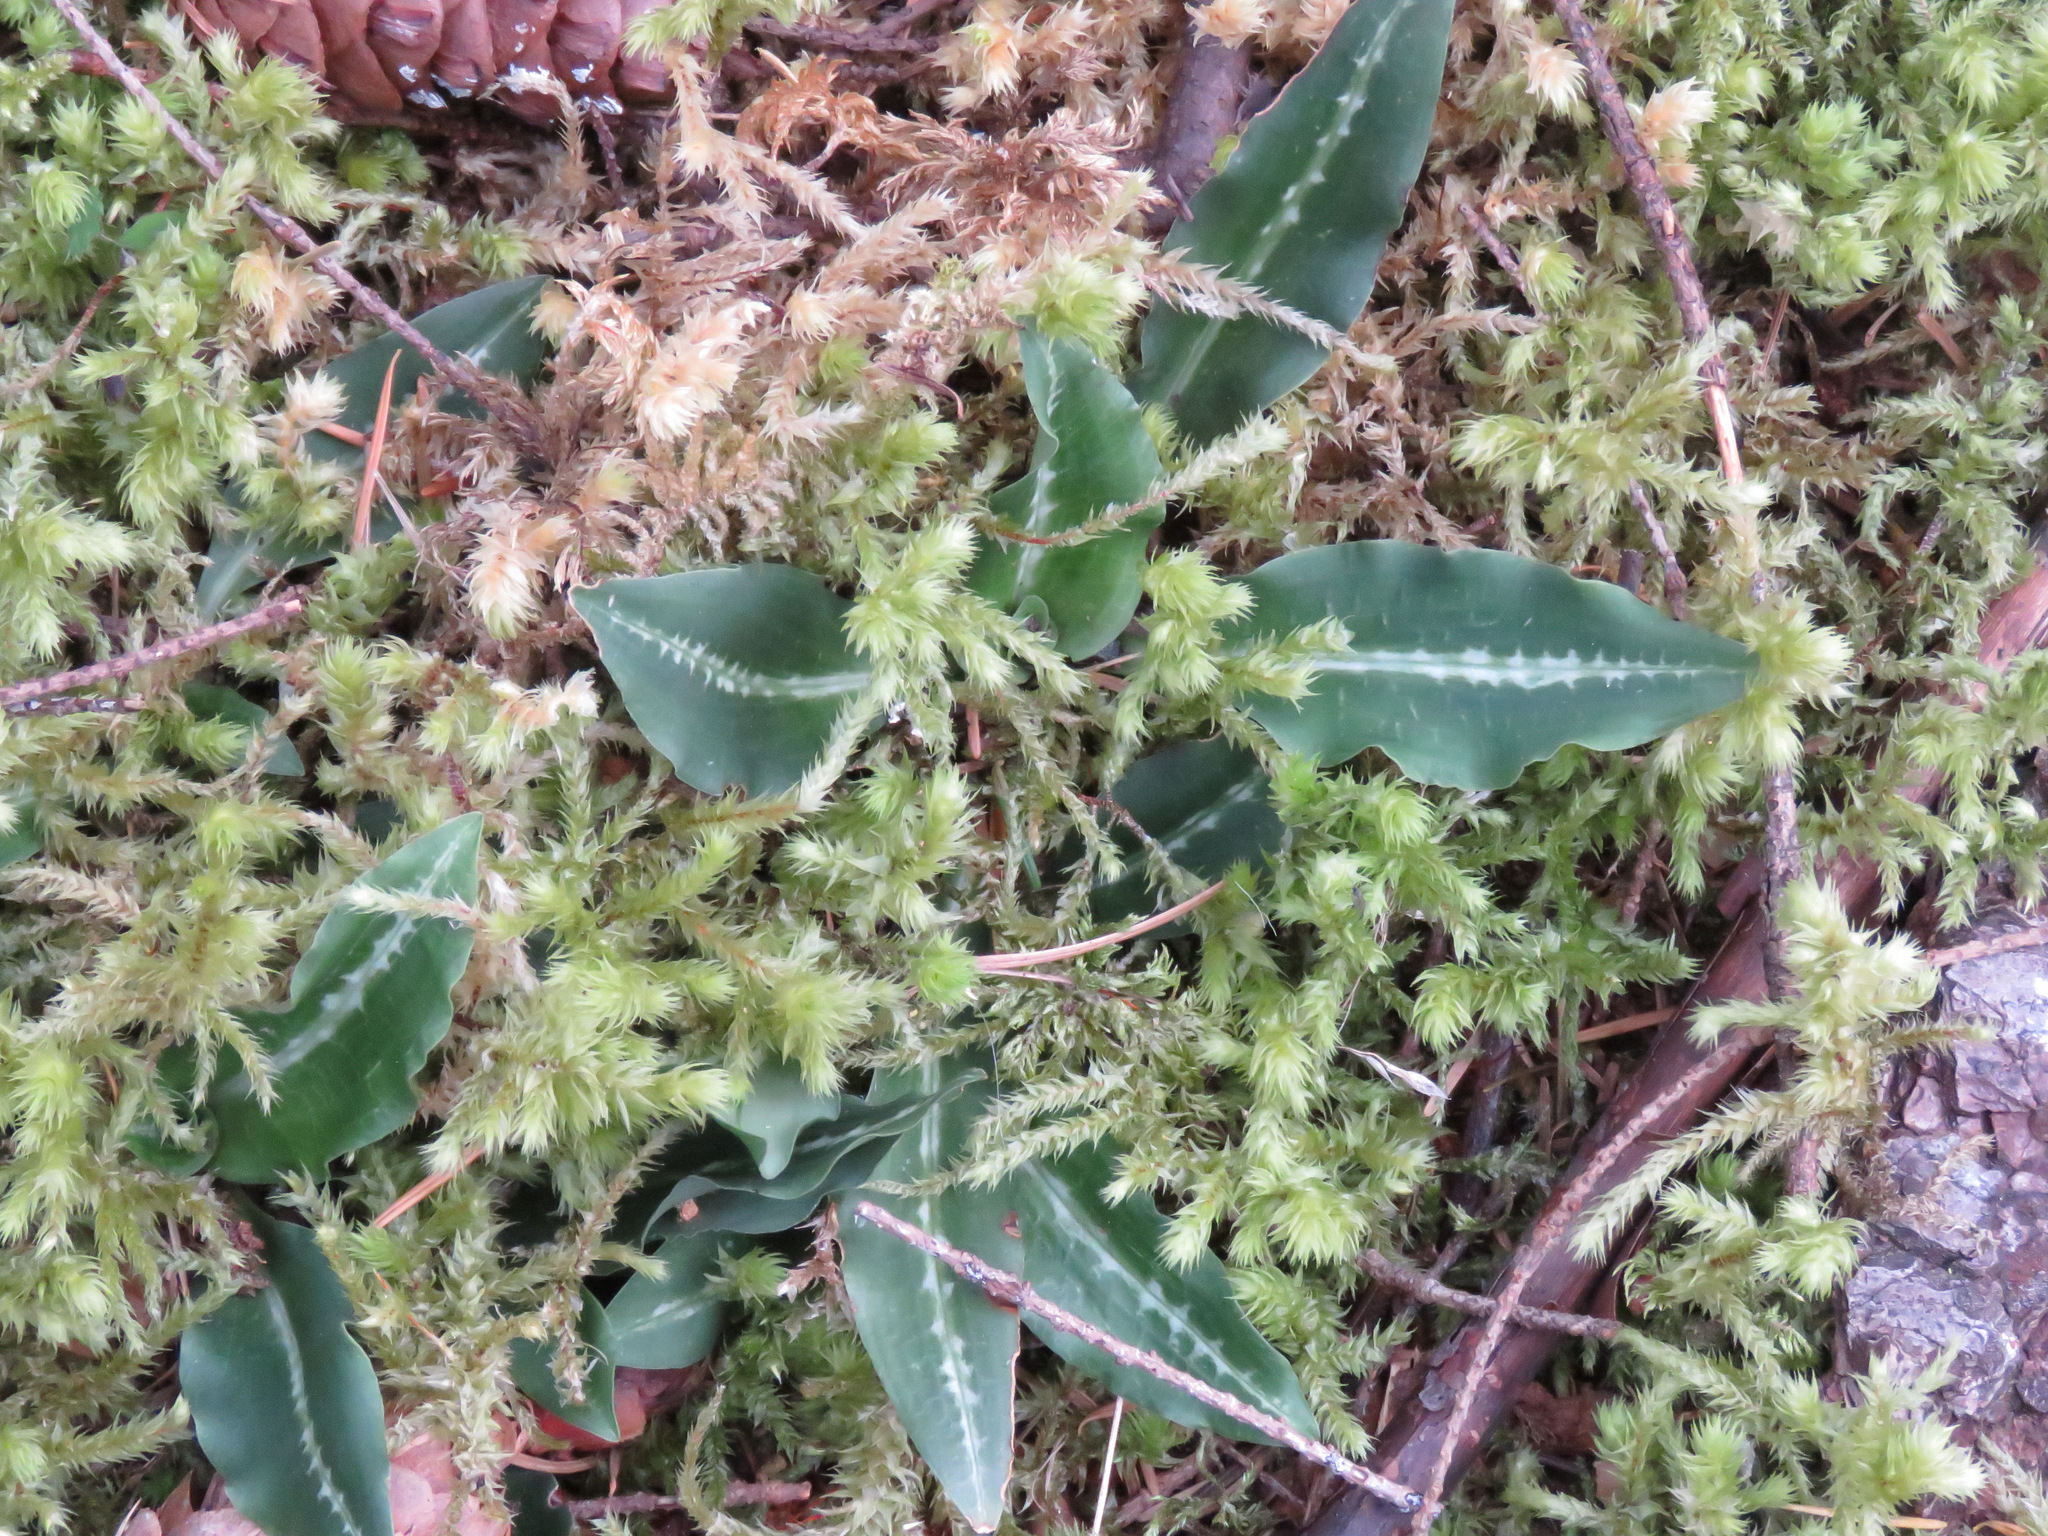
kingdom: Plantae
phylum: Tracheophyta
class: Liliopsida
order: Asparagales
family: Orchidaceae
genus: Goodyera
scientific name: Goodyera oblongifolia
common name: Giant rattlesnake-plantain
